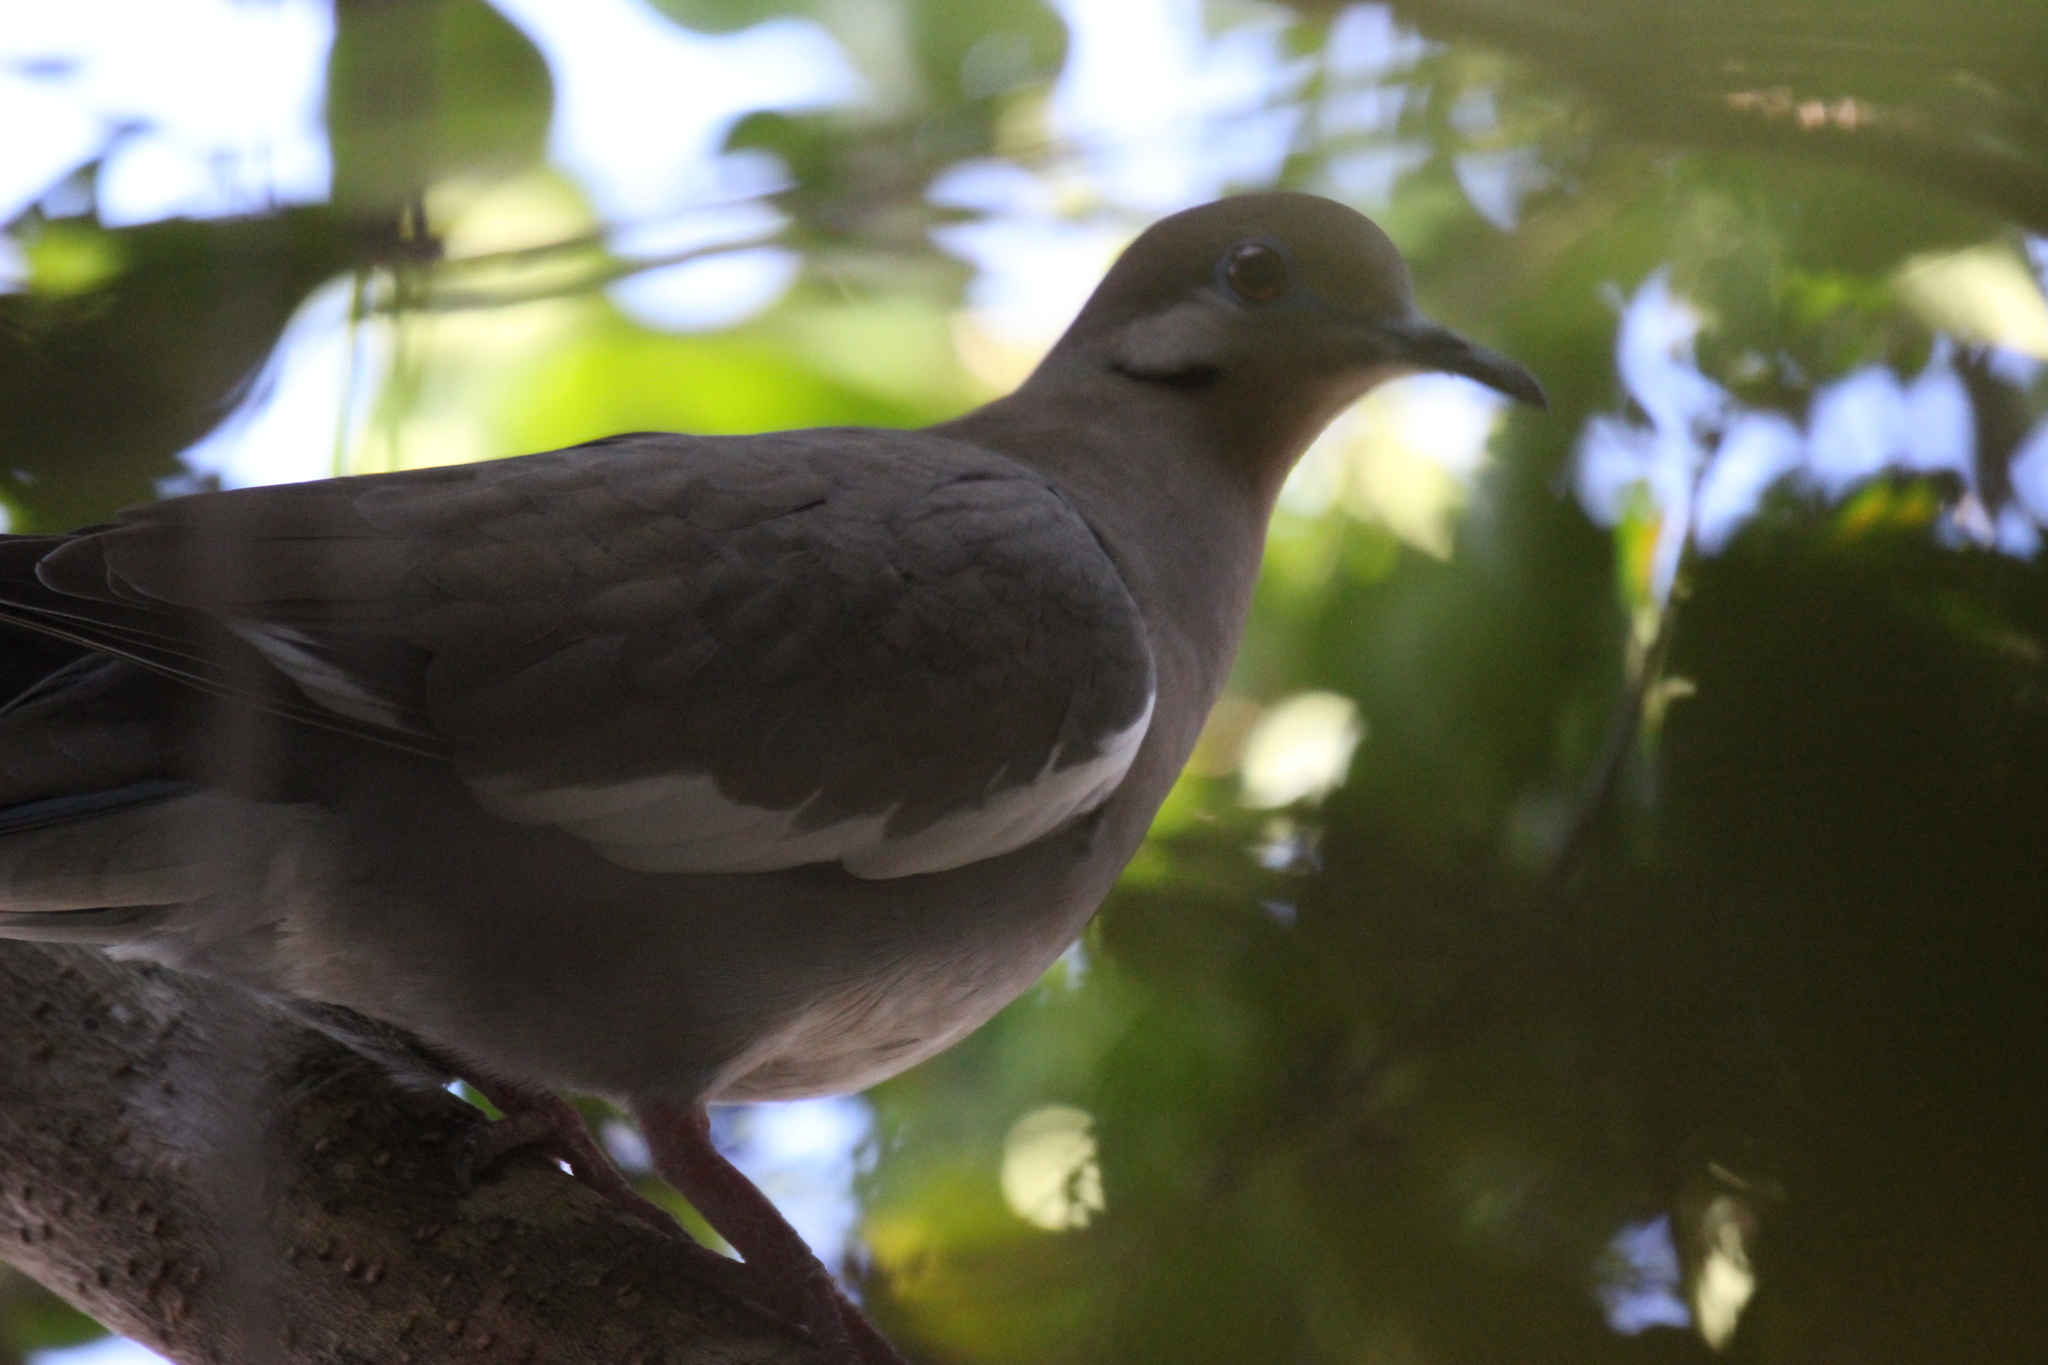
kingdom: Animalia
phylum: Chordata
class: Aves
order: Columbiformes
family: Columbidae
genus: Zenaida
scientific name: Zenaida asiatica
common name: White-winged dove
